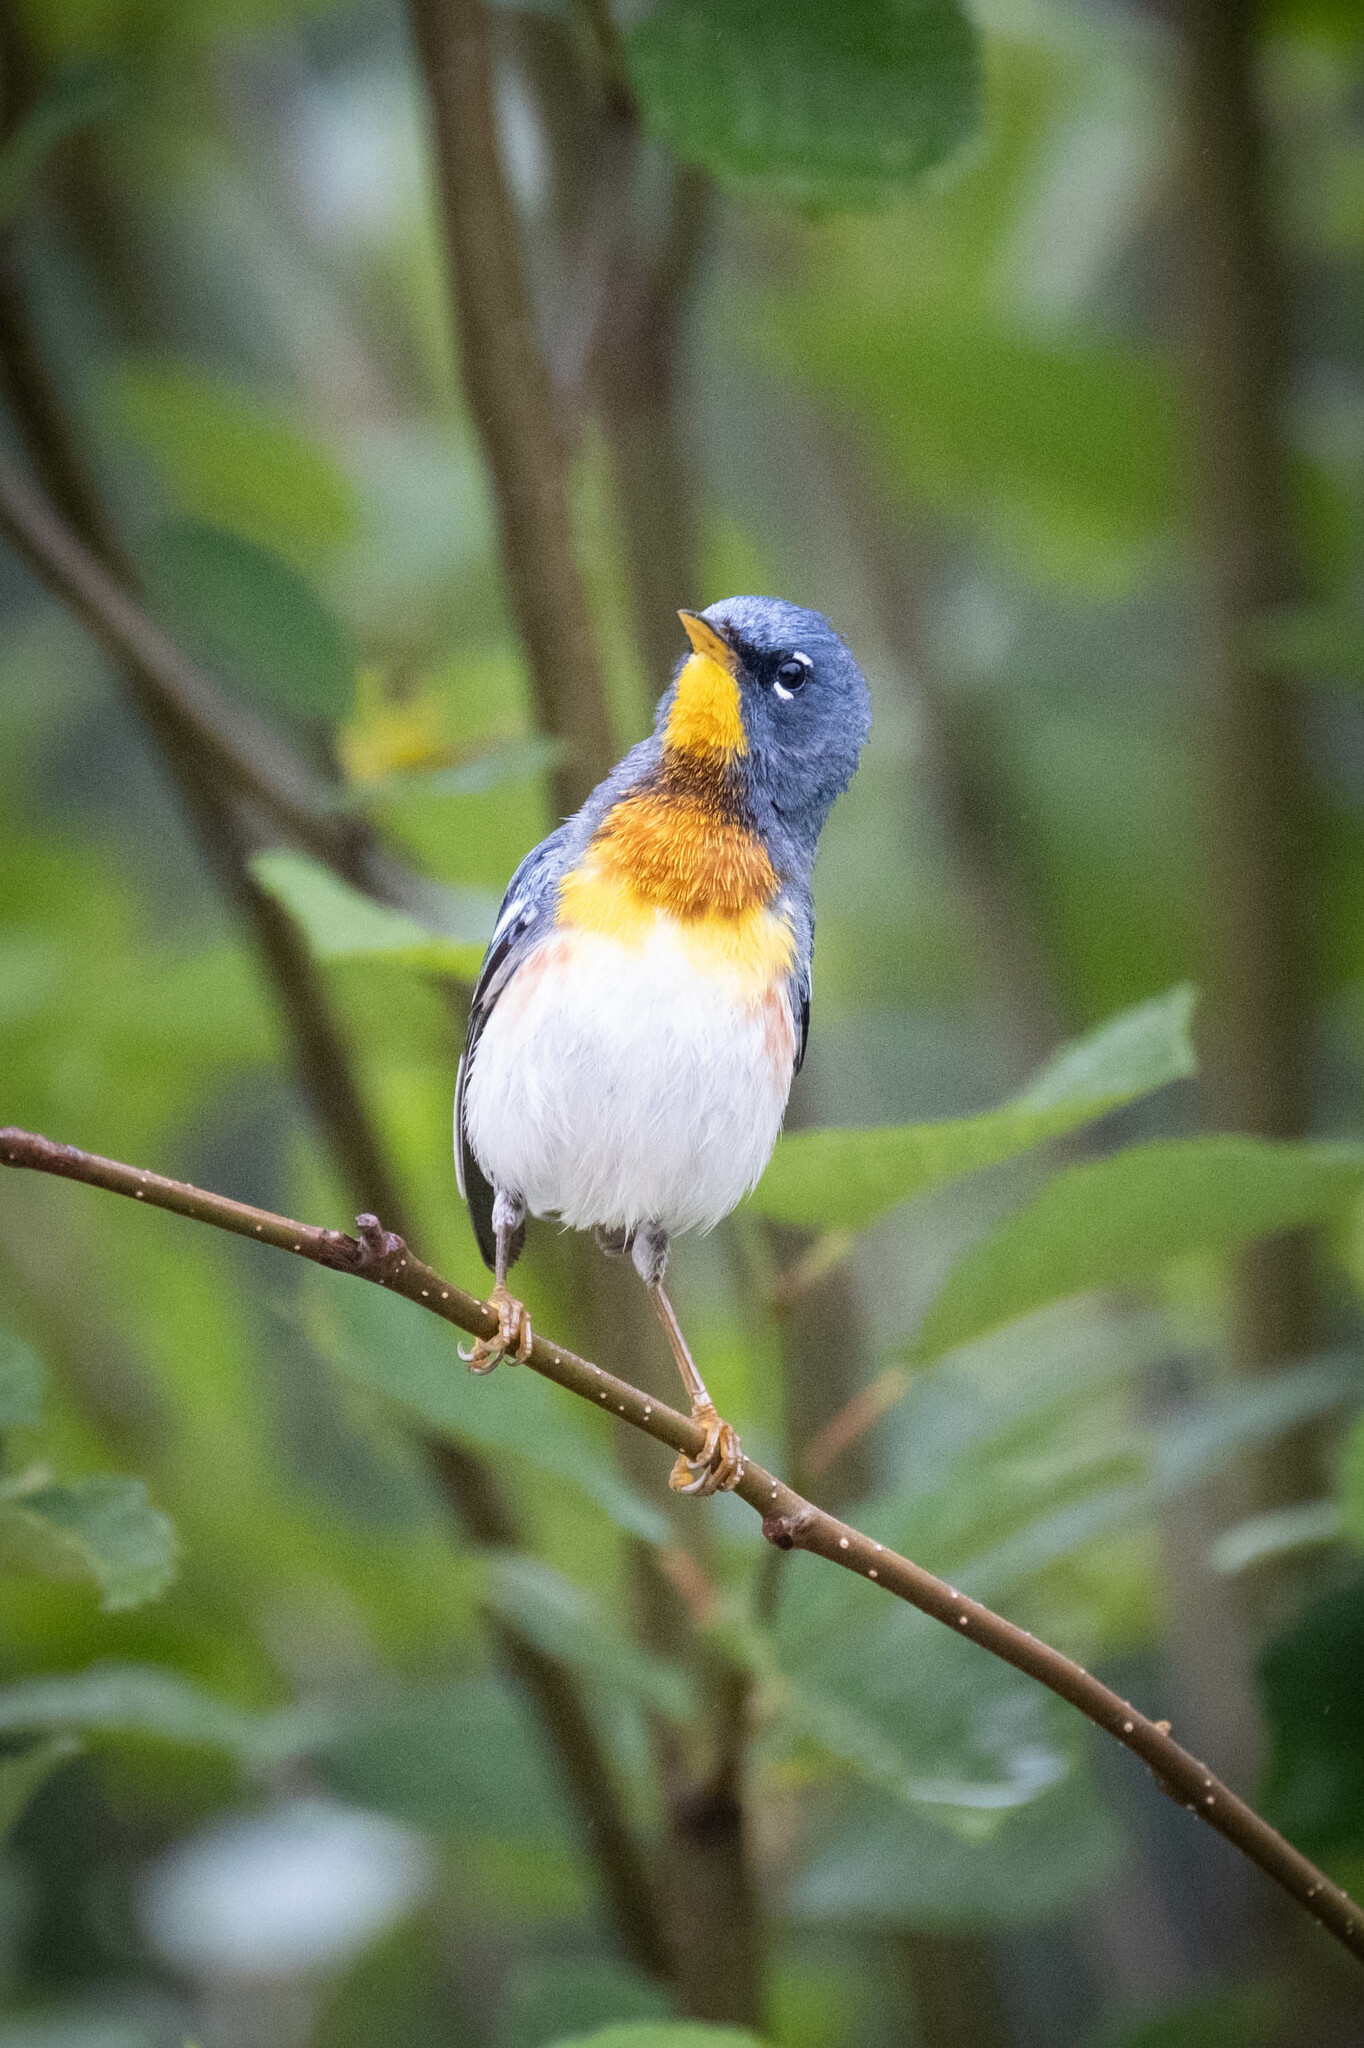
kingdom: Animalia
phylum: Chordata
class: Aves
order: Passeriformes
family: Parulidae
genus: Setophaga
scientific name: Setophaga americana
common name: Northern parula
